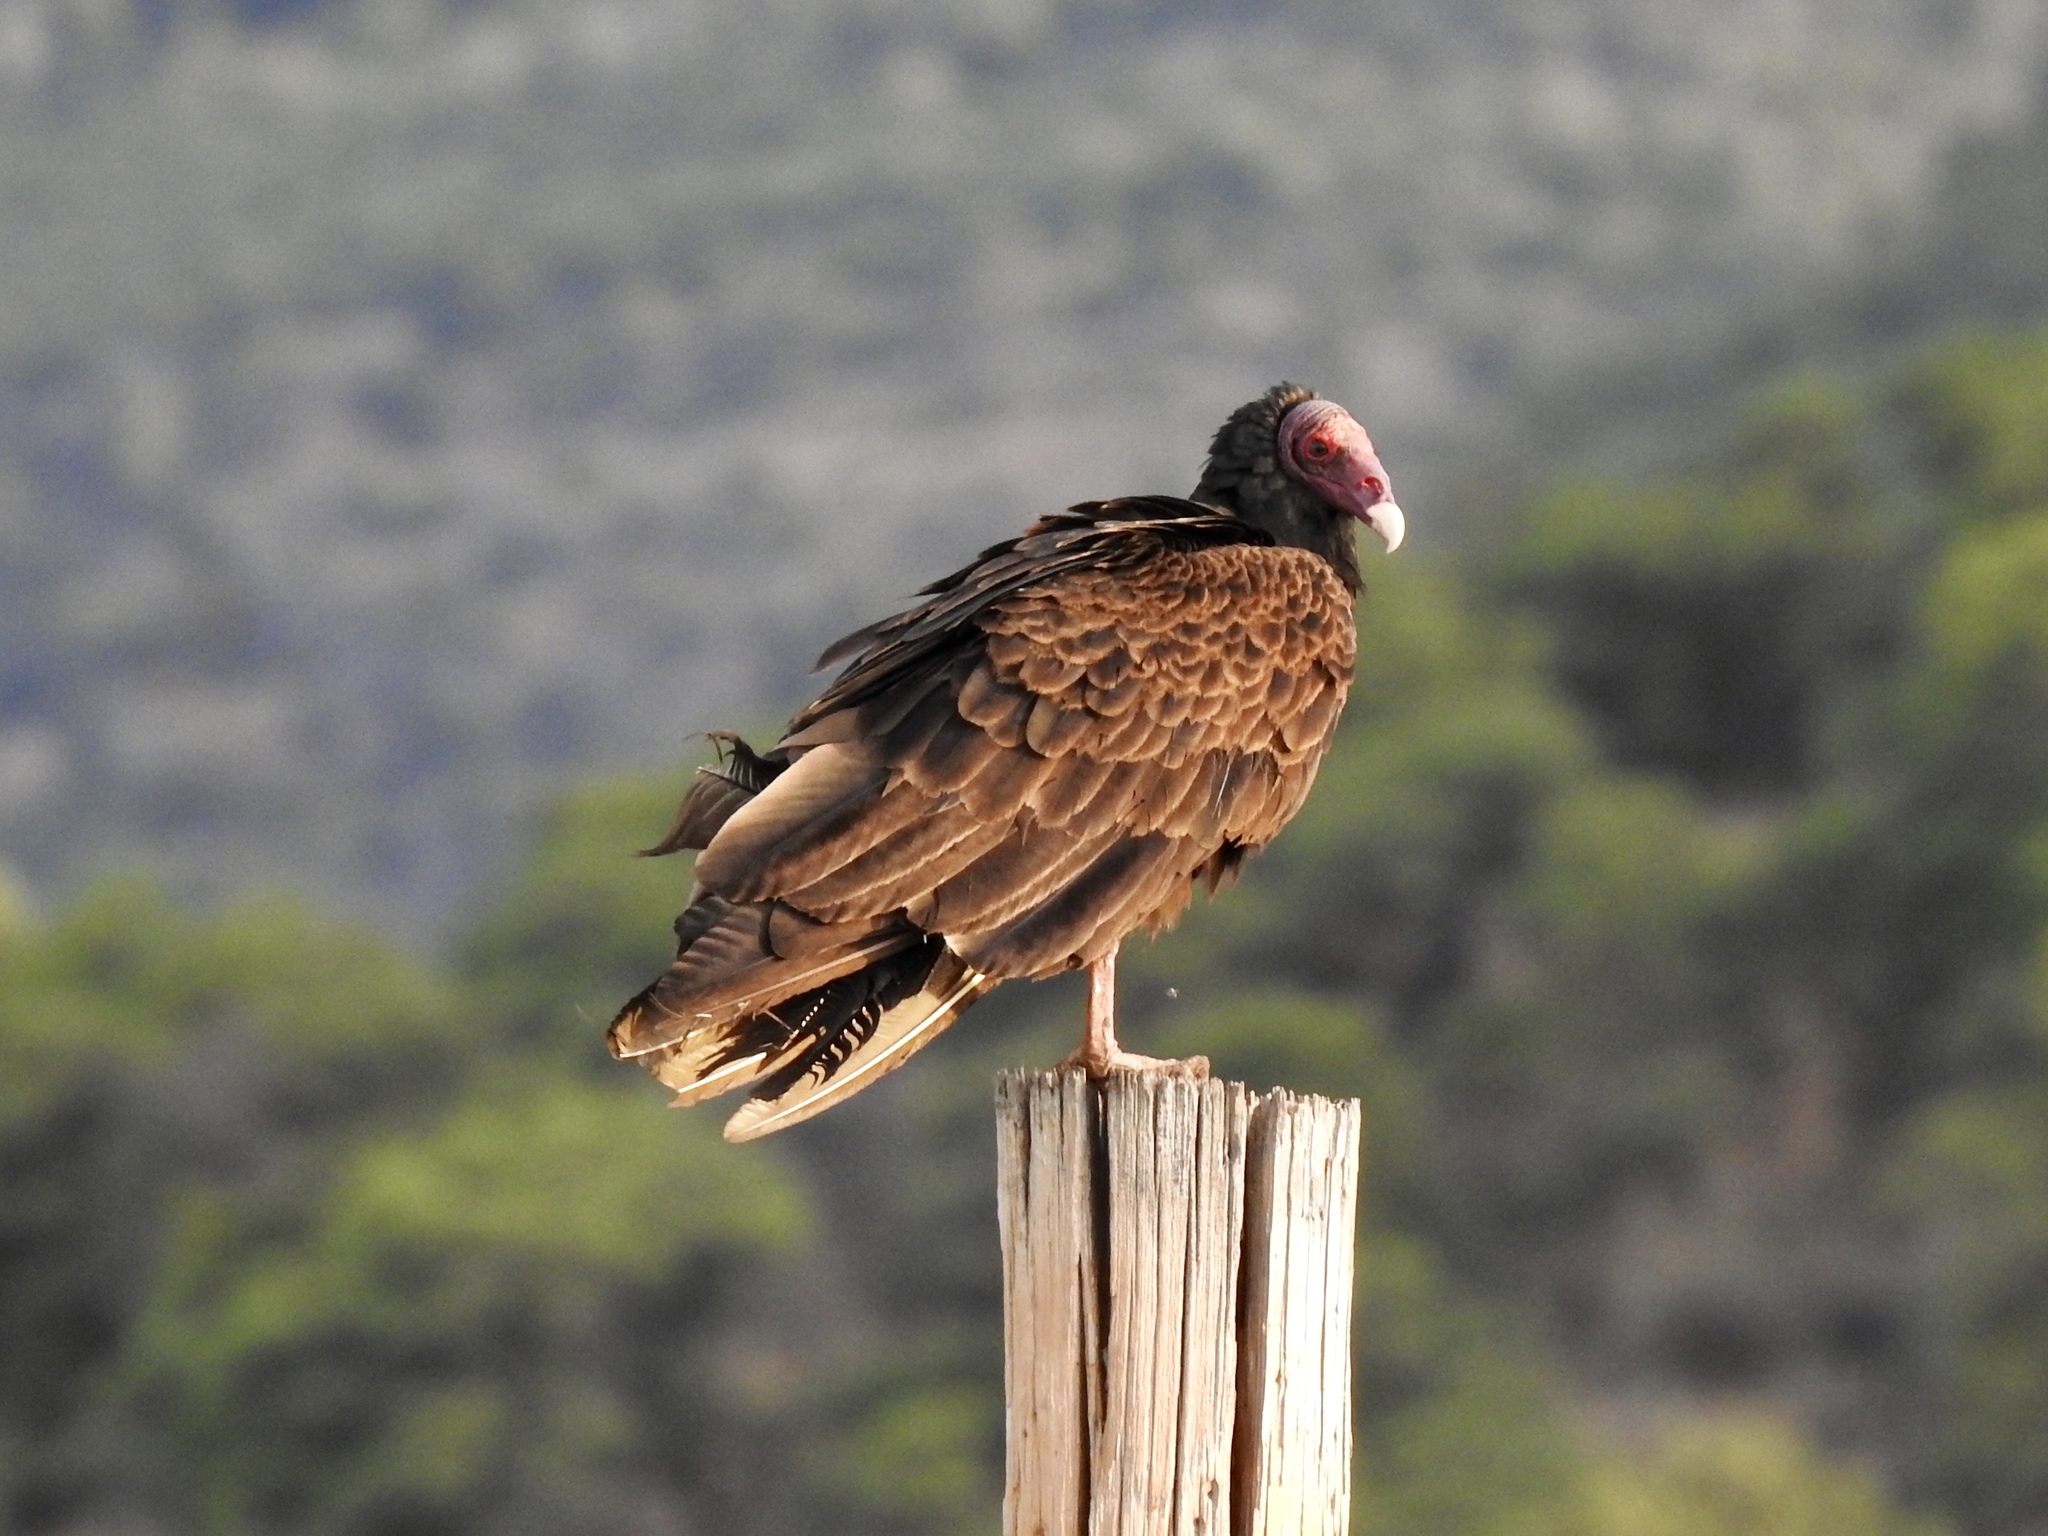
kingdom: Animalia
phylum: Chordata
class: Aves
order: Accipitriformes
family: Cathartidae
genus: Cathartes
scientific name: Cathartes aura
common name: Turkey vulture
